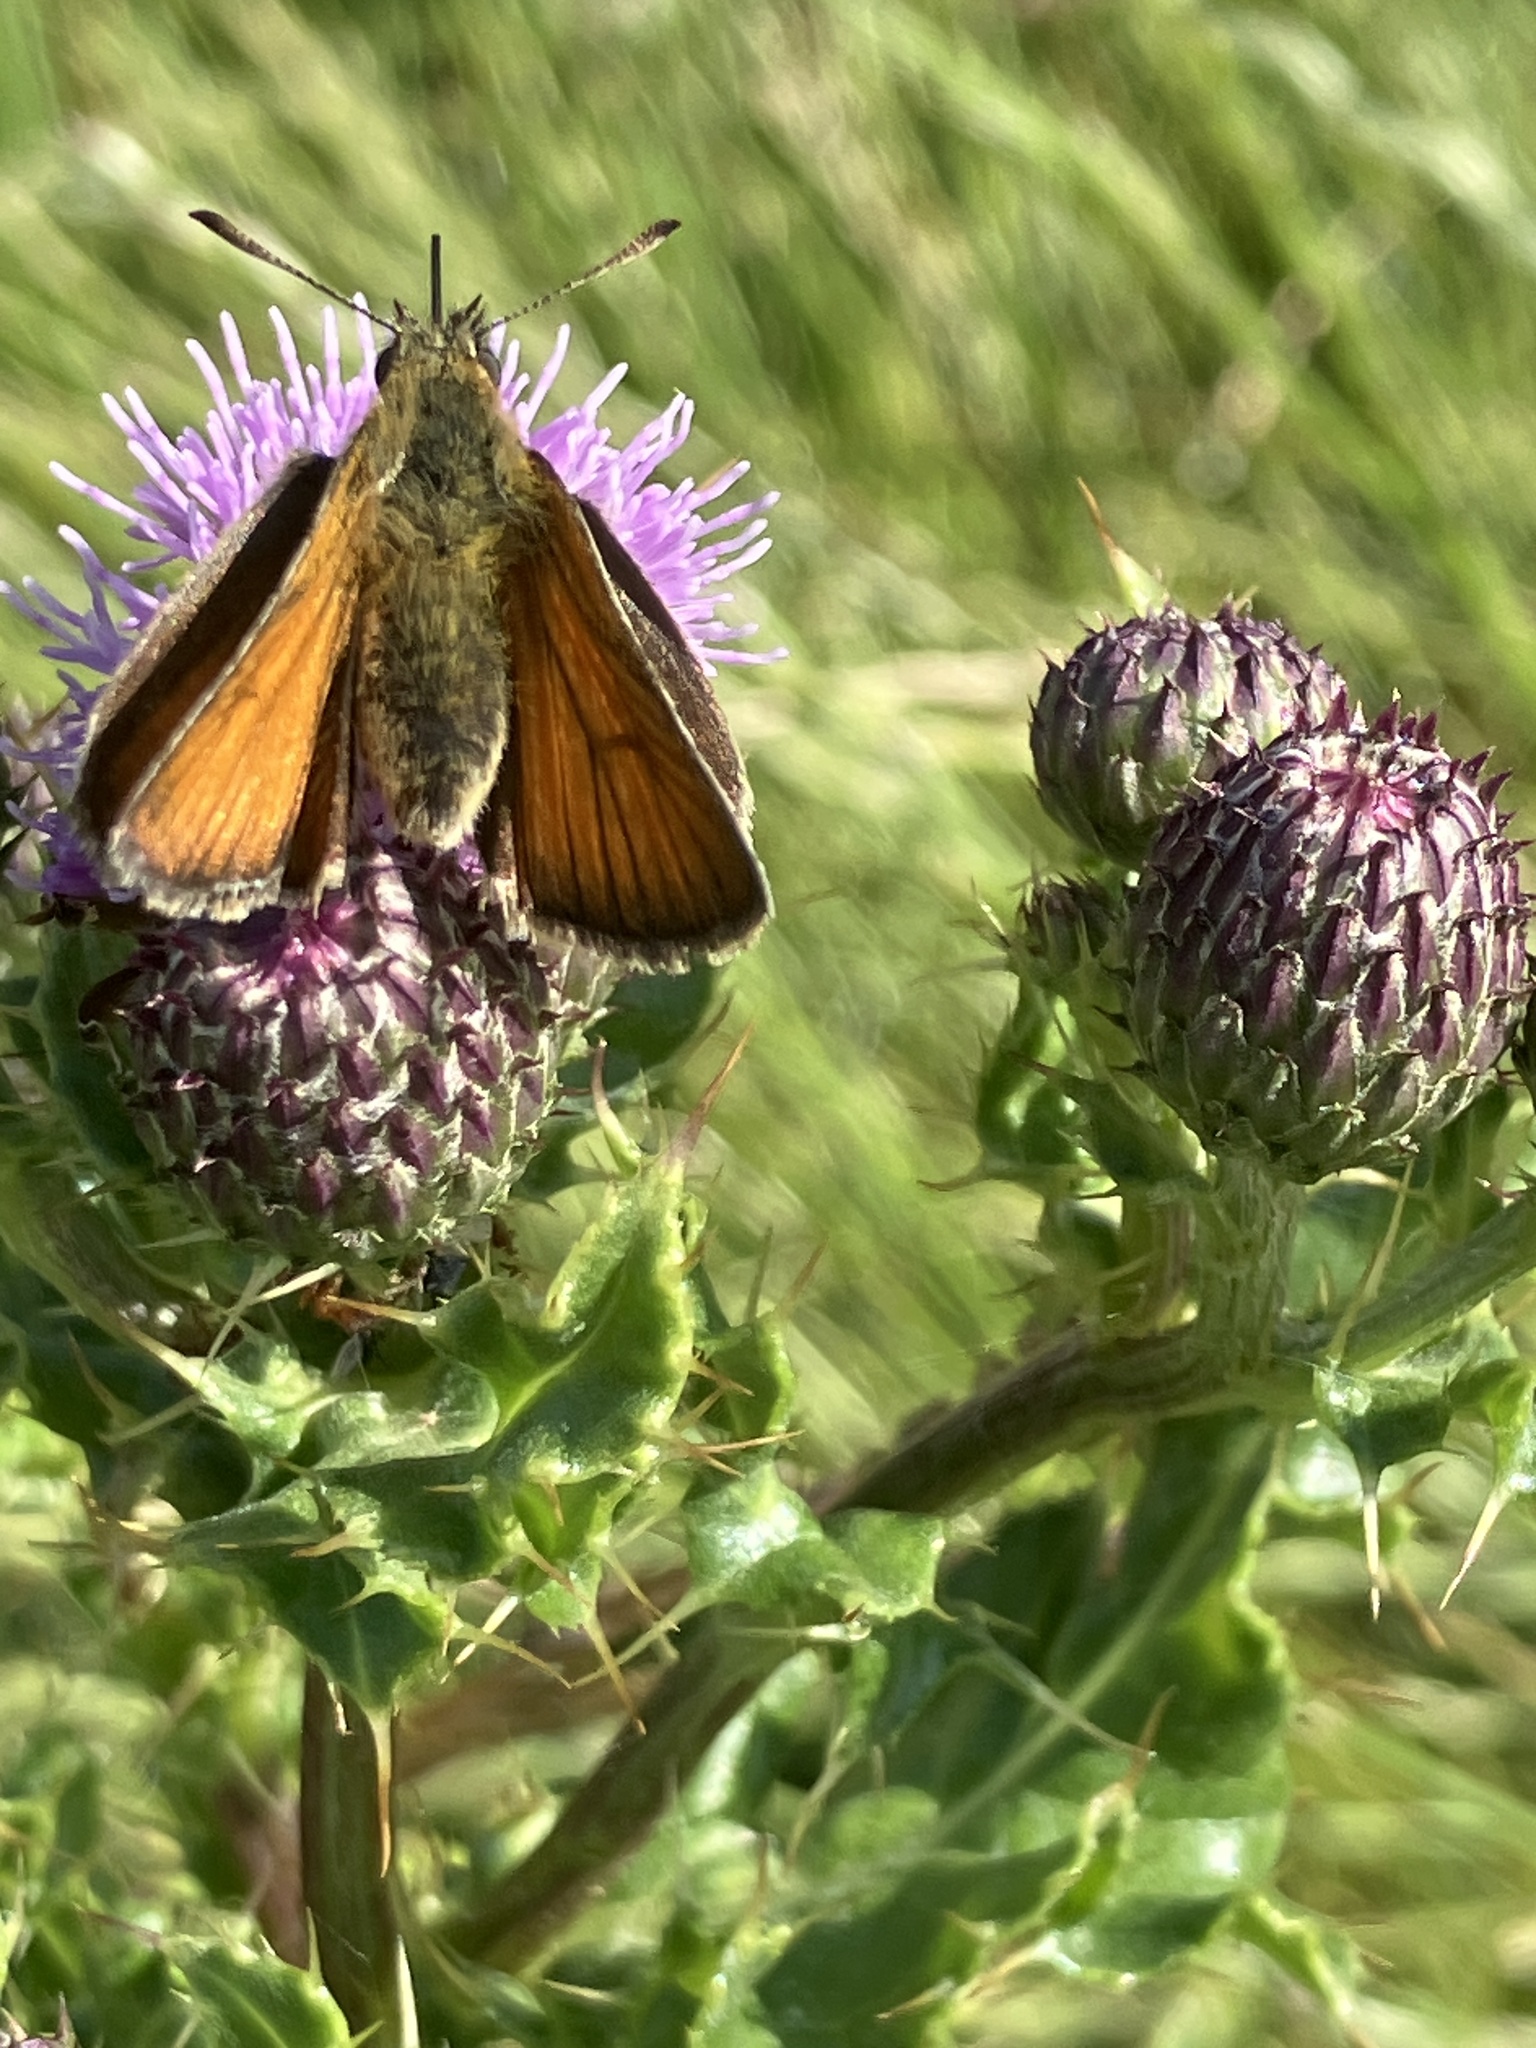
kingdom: Animalia
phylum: Arthropoda
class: Insecta
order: Lepidoptera
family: Hesperiidae
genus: Thymelicus
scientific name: Thymelicus sylvestris
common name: Small skipper
